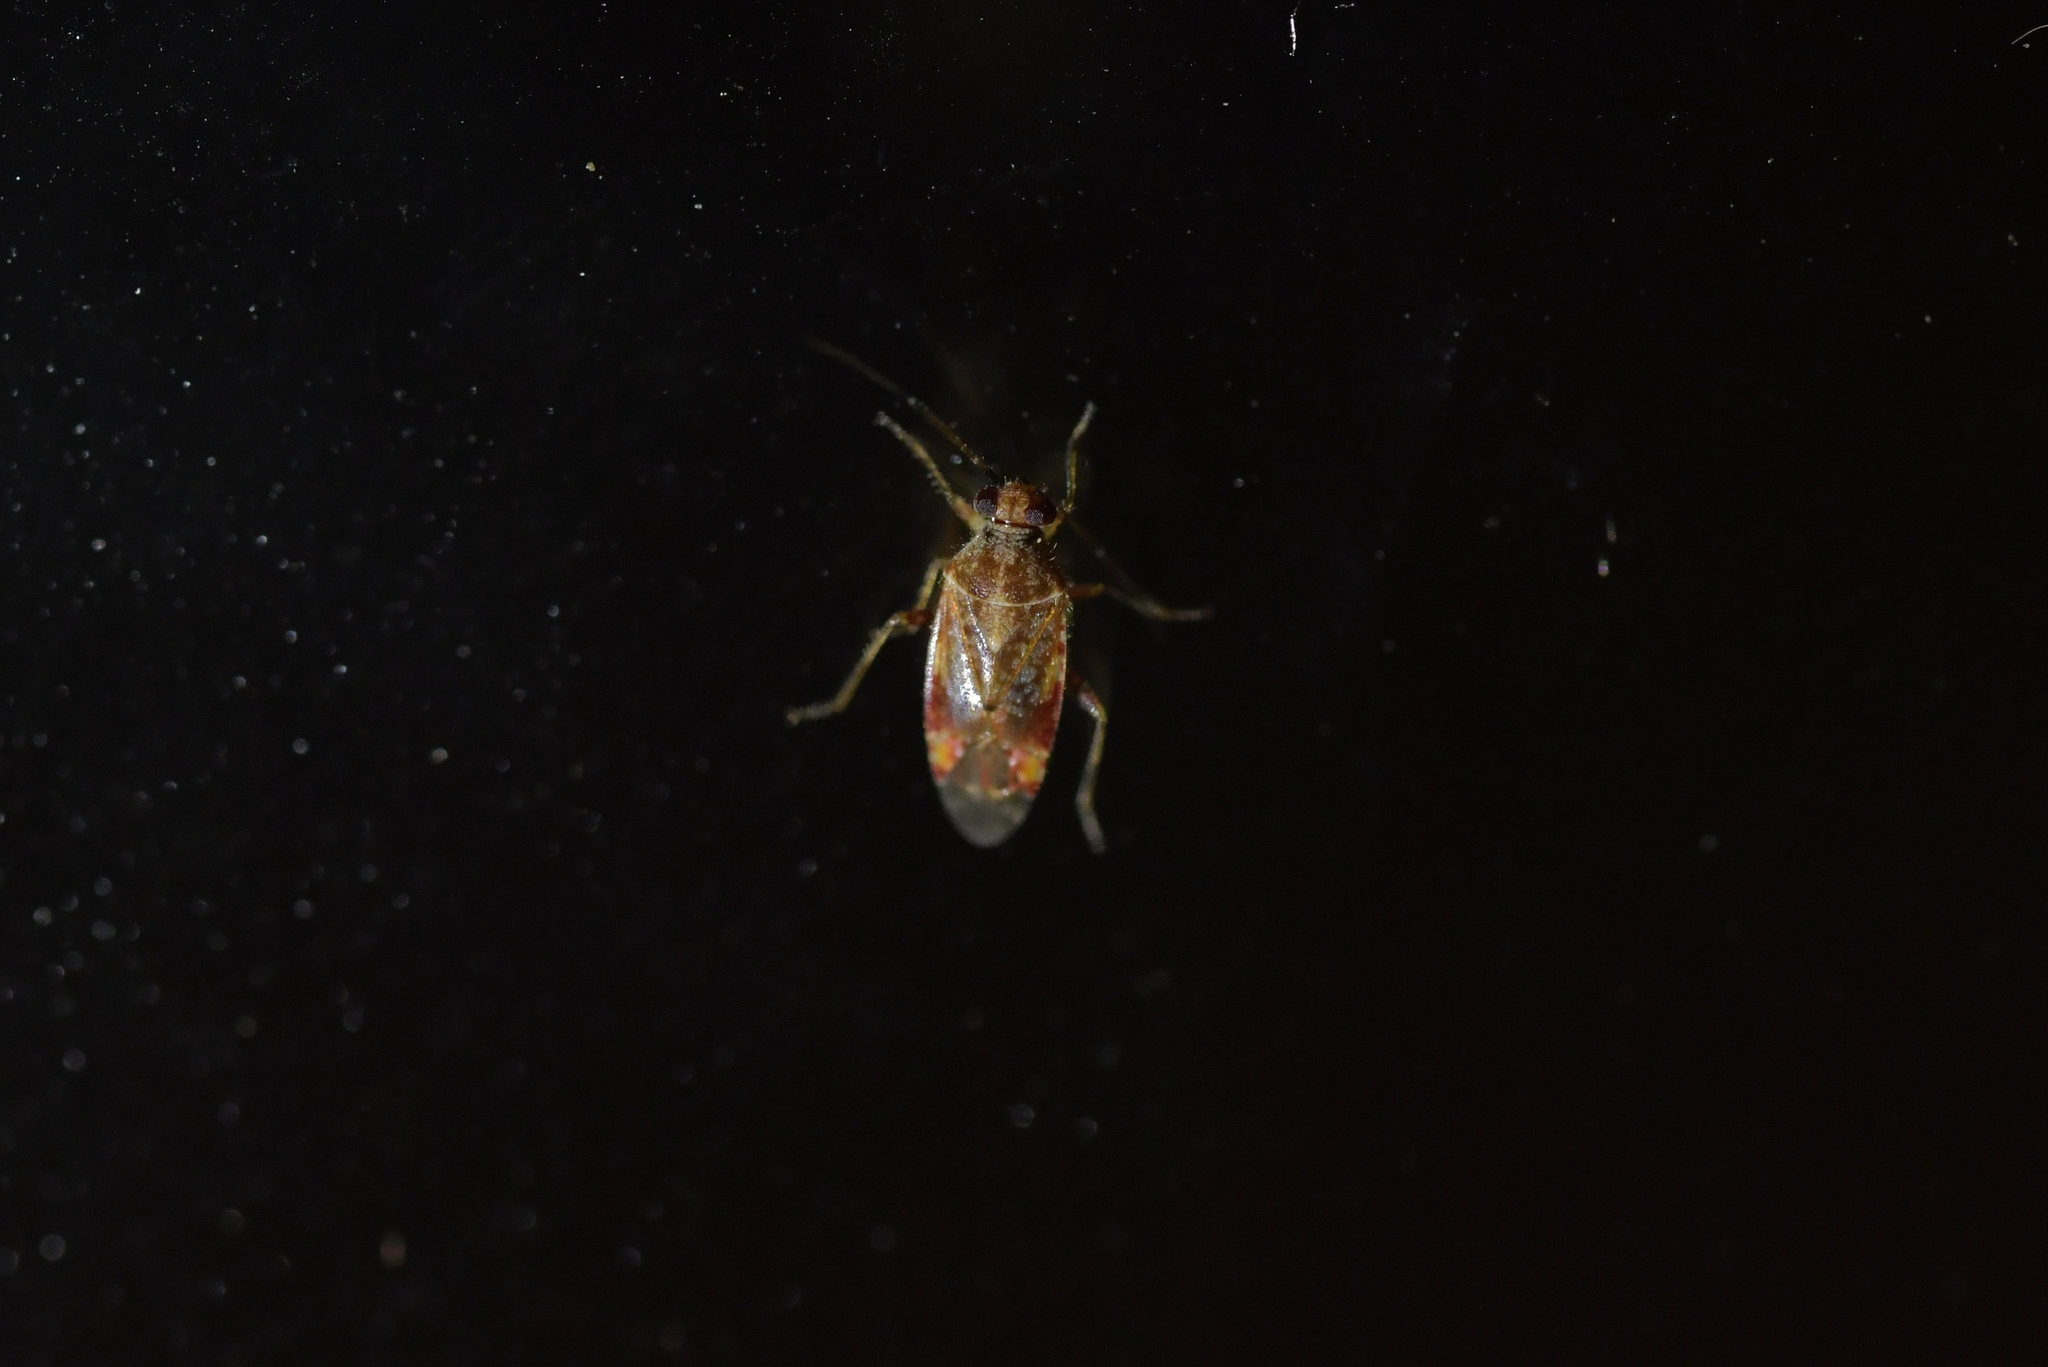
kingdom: Animalia
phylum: Arthropoda
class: Insecta
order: Hemiptera
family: Miridae
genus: Tinginotum
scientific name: Tinginotum minutum
